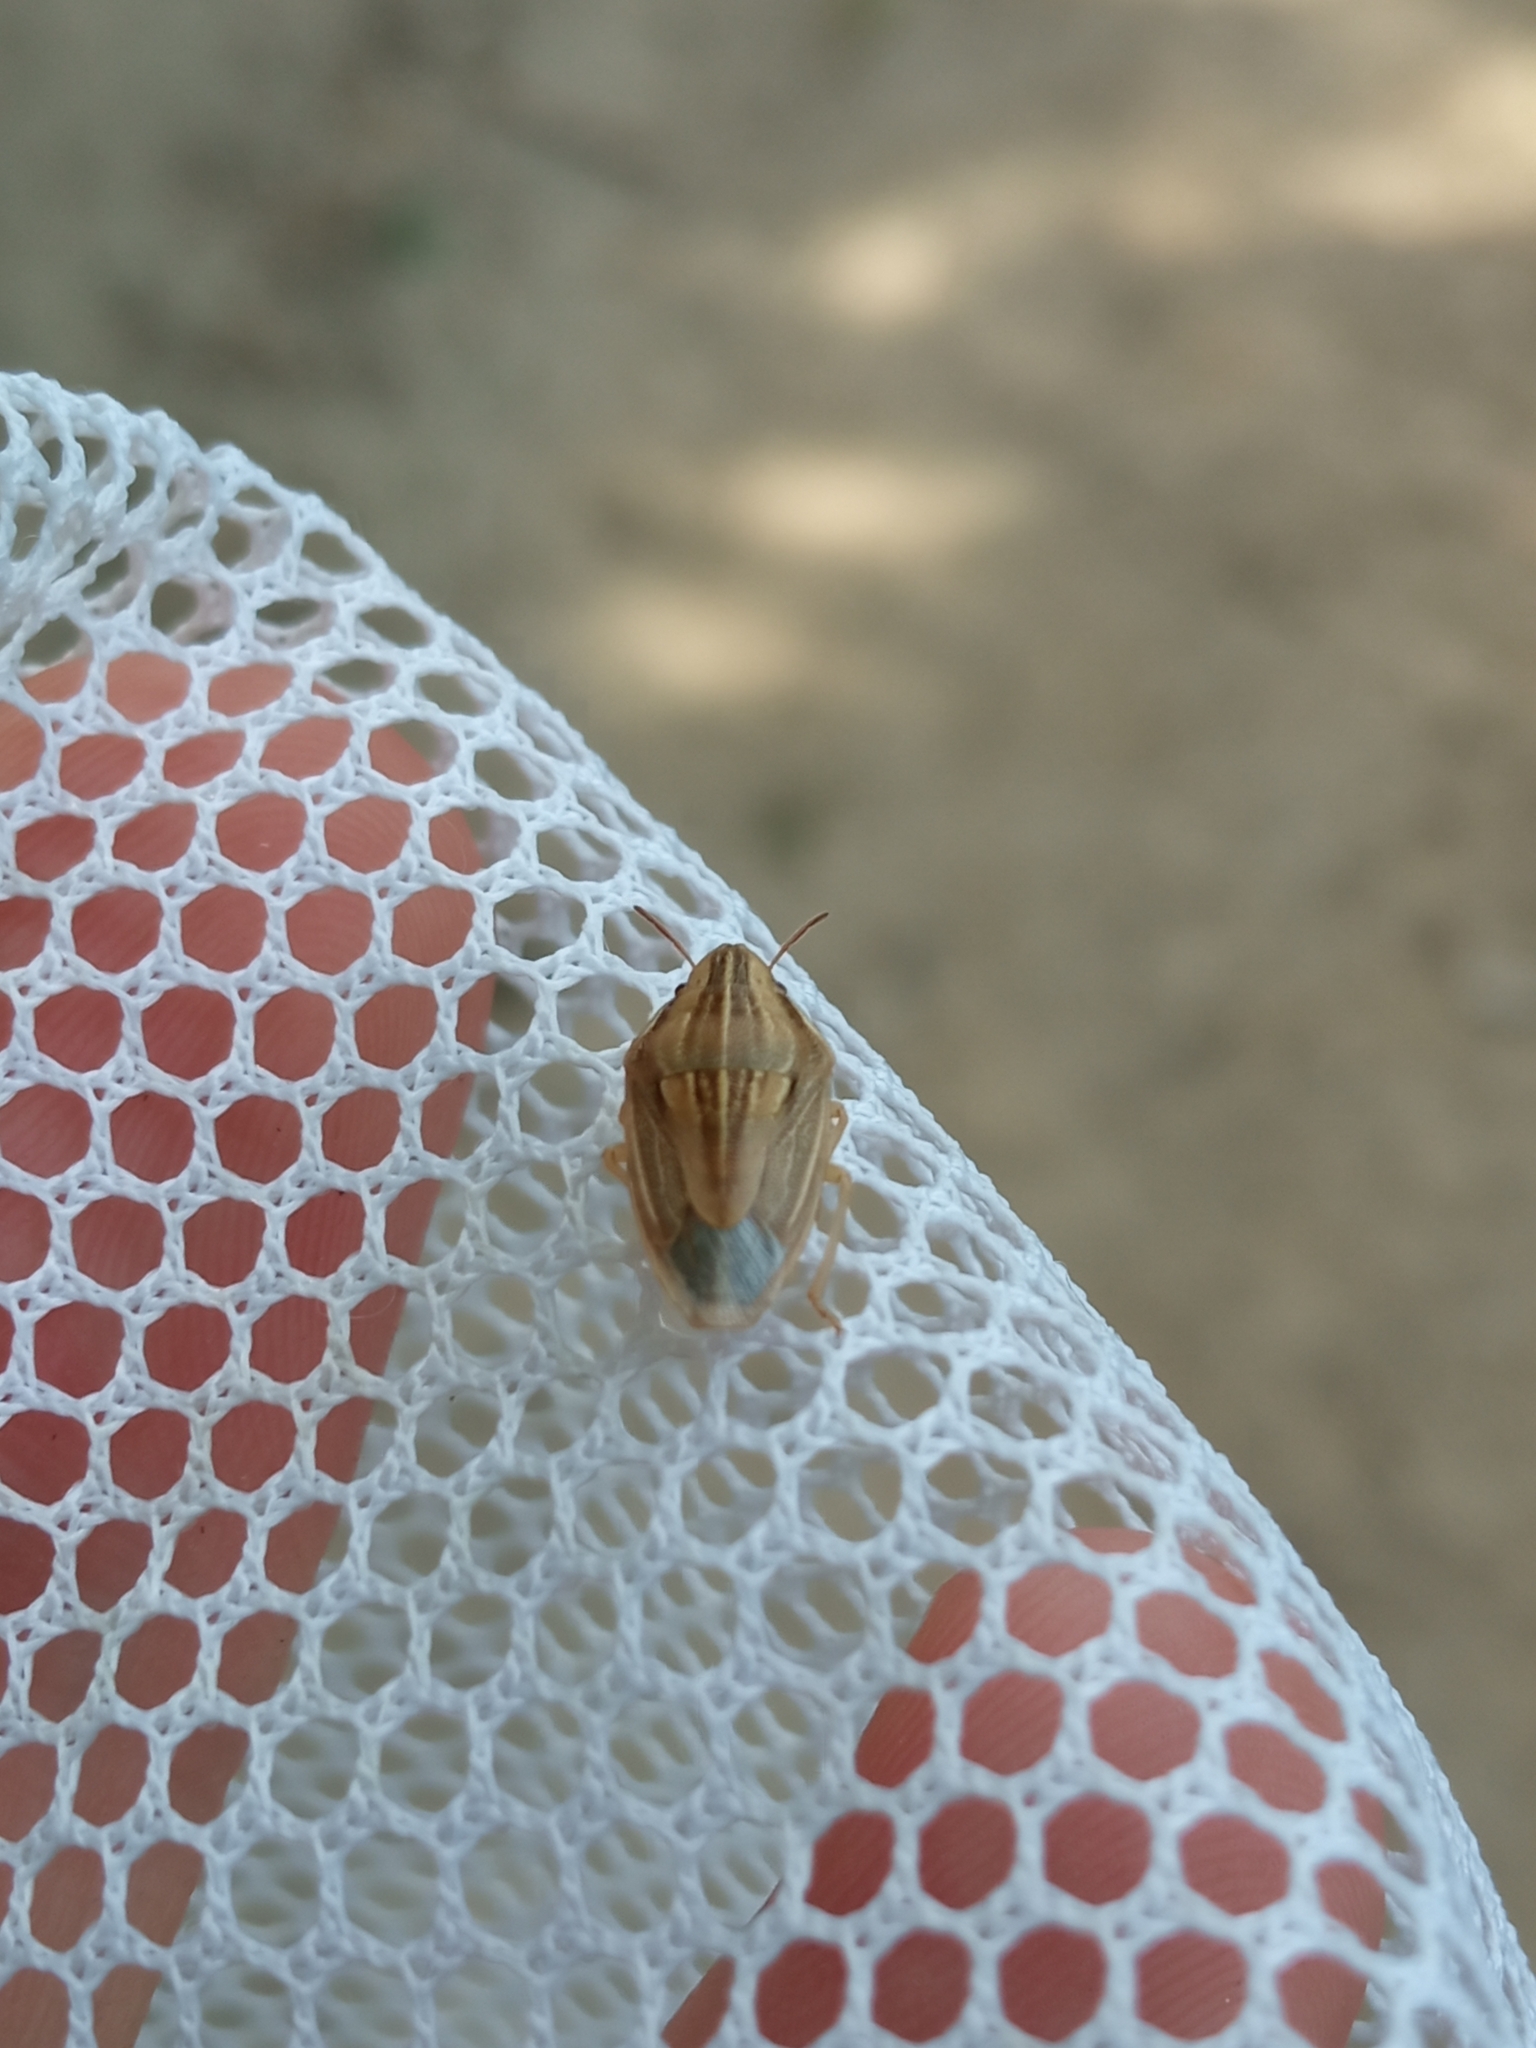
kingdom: Animalia
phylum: Arthropoda
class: Insecta
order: Hemiptera
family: Pentatomidae
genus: Aelia
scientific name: Aelia acuminata
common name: Bishop's mitre
